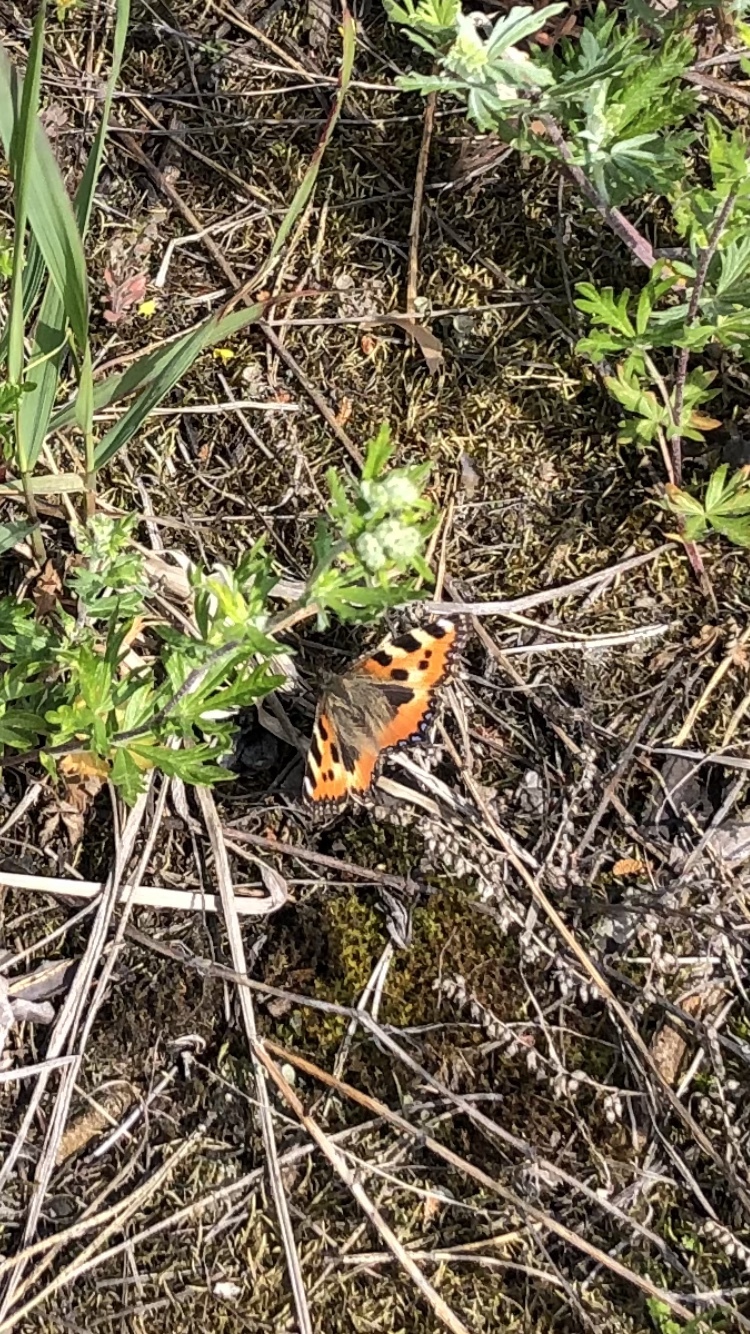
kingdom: Animalia
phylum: Arthropoda
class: Insecta
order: Lepidoptera
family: Nymphalidae
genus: Aglais
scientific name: Aglais urticae
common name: Small tortoiseshell
